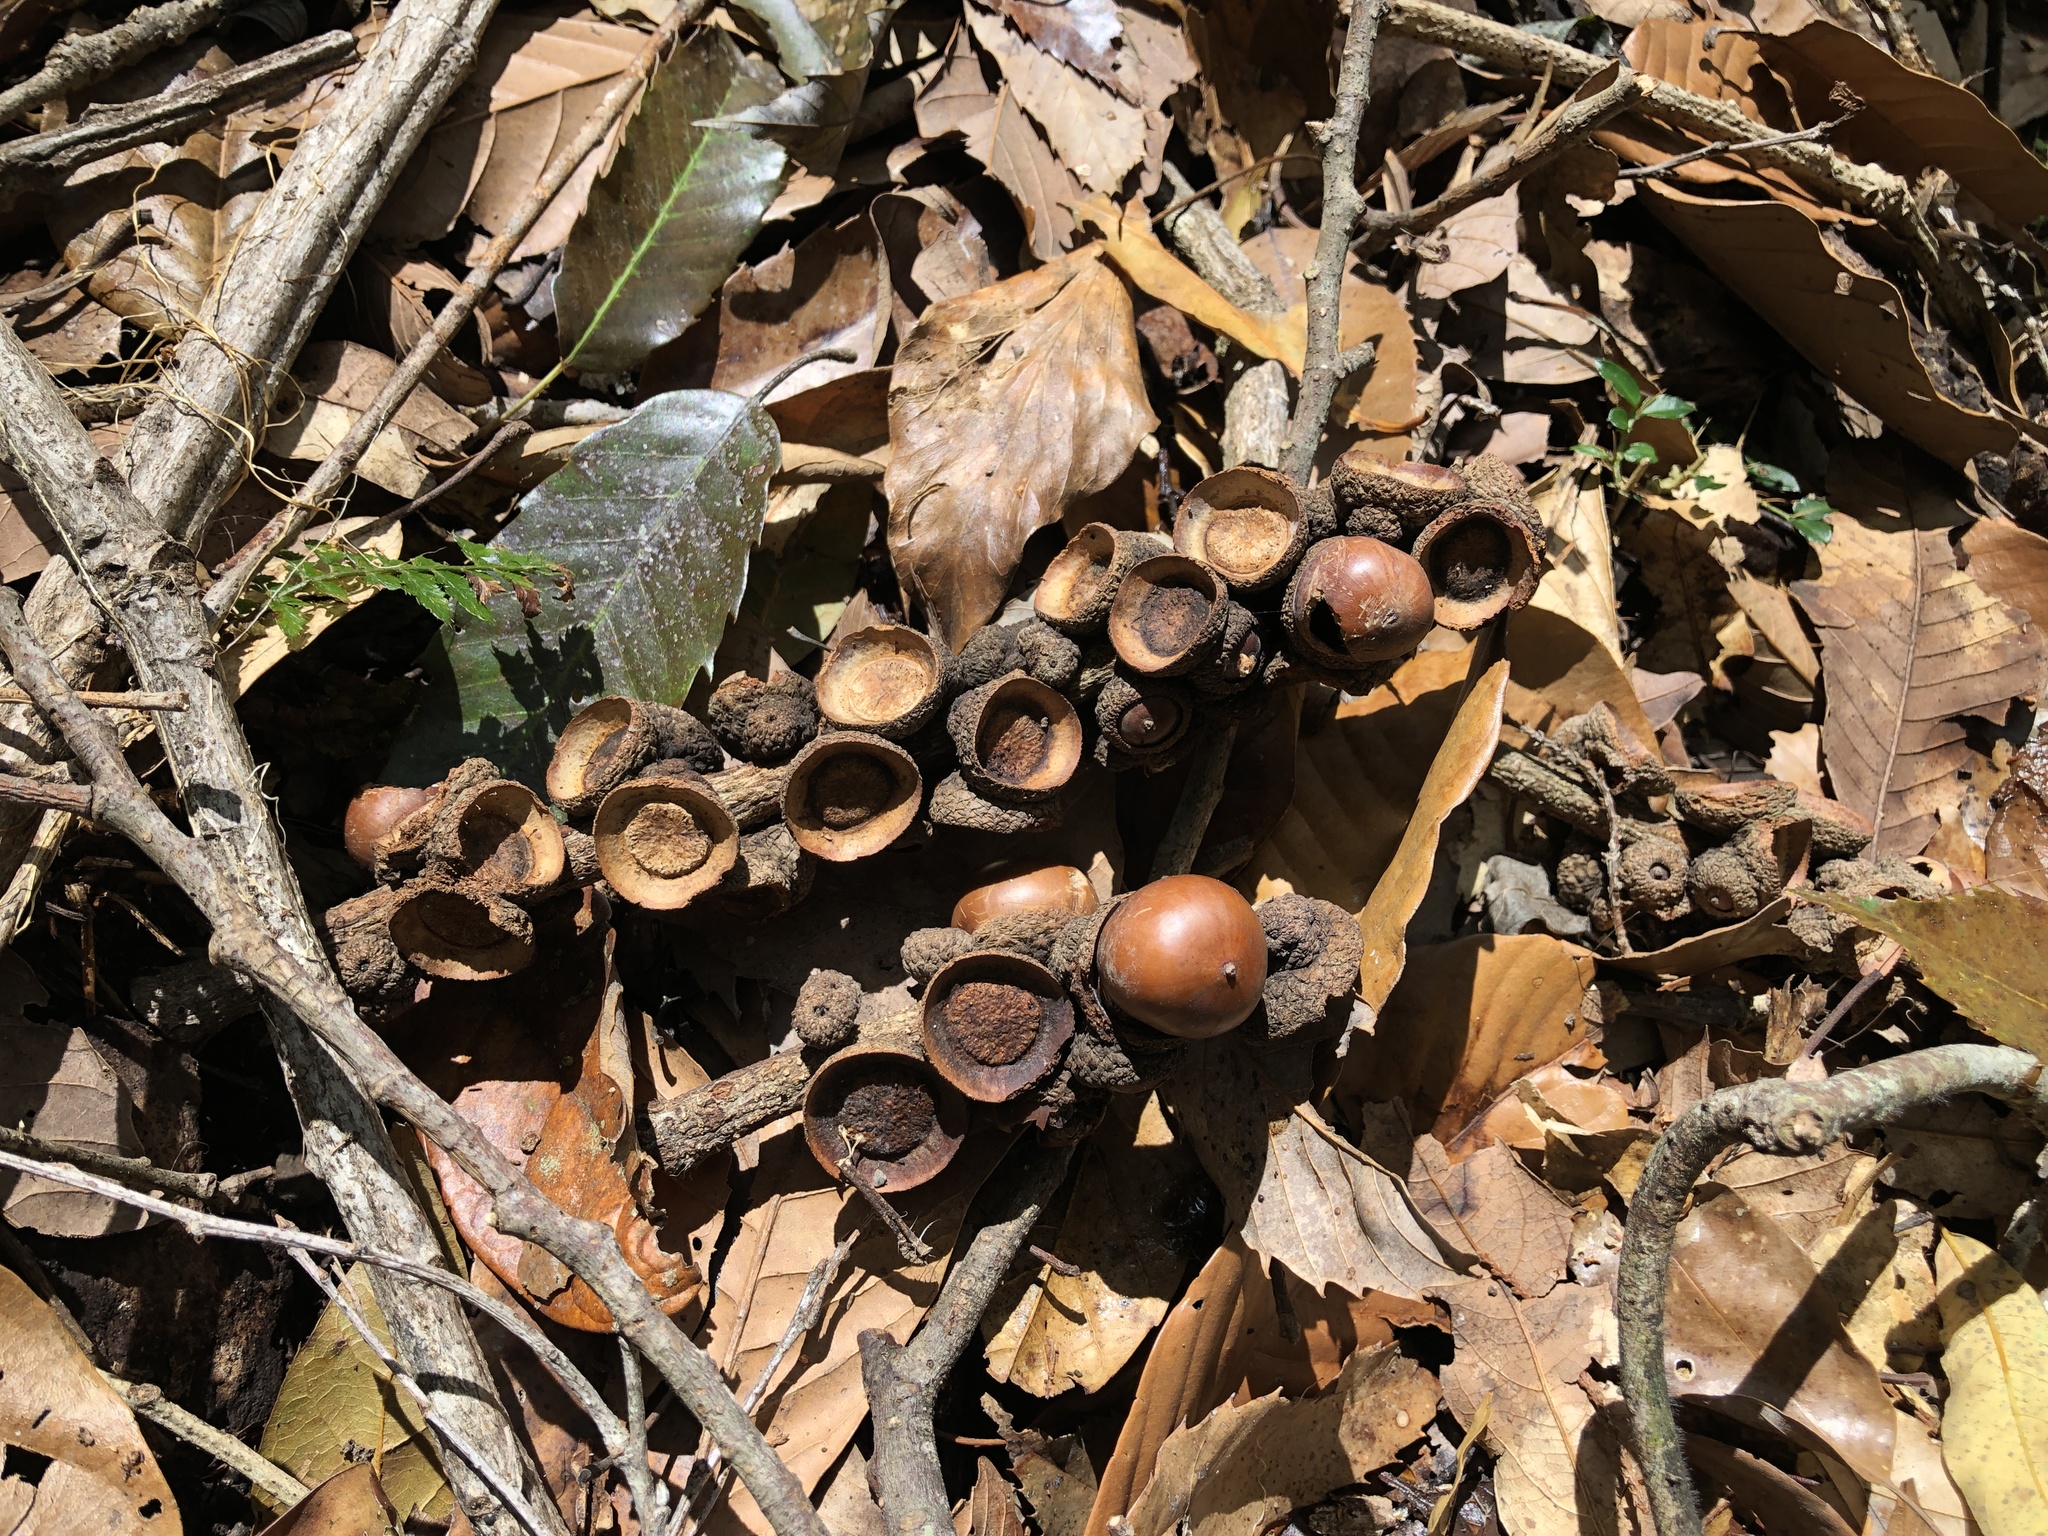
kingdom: Plantae
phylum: Tracheophyta
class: Magnoliopsida
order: Fagales
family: Fagaceae
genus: Lithocarpus
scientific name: Lithocarpus kawakamii
